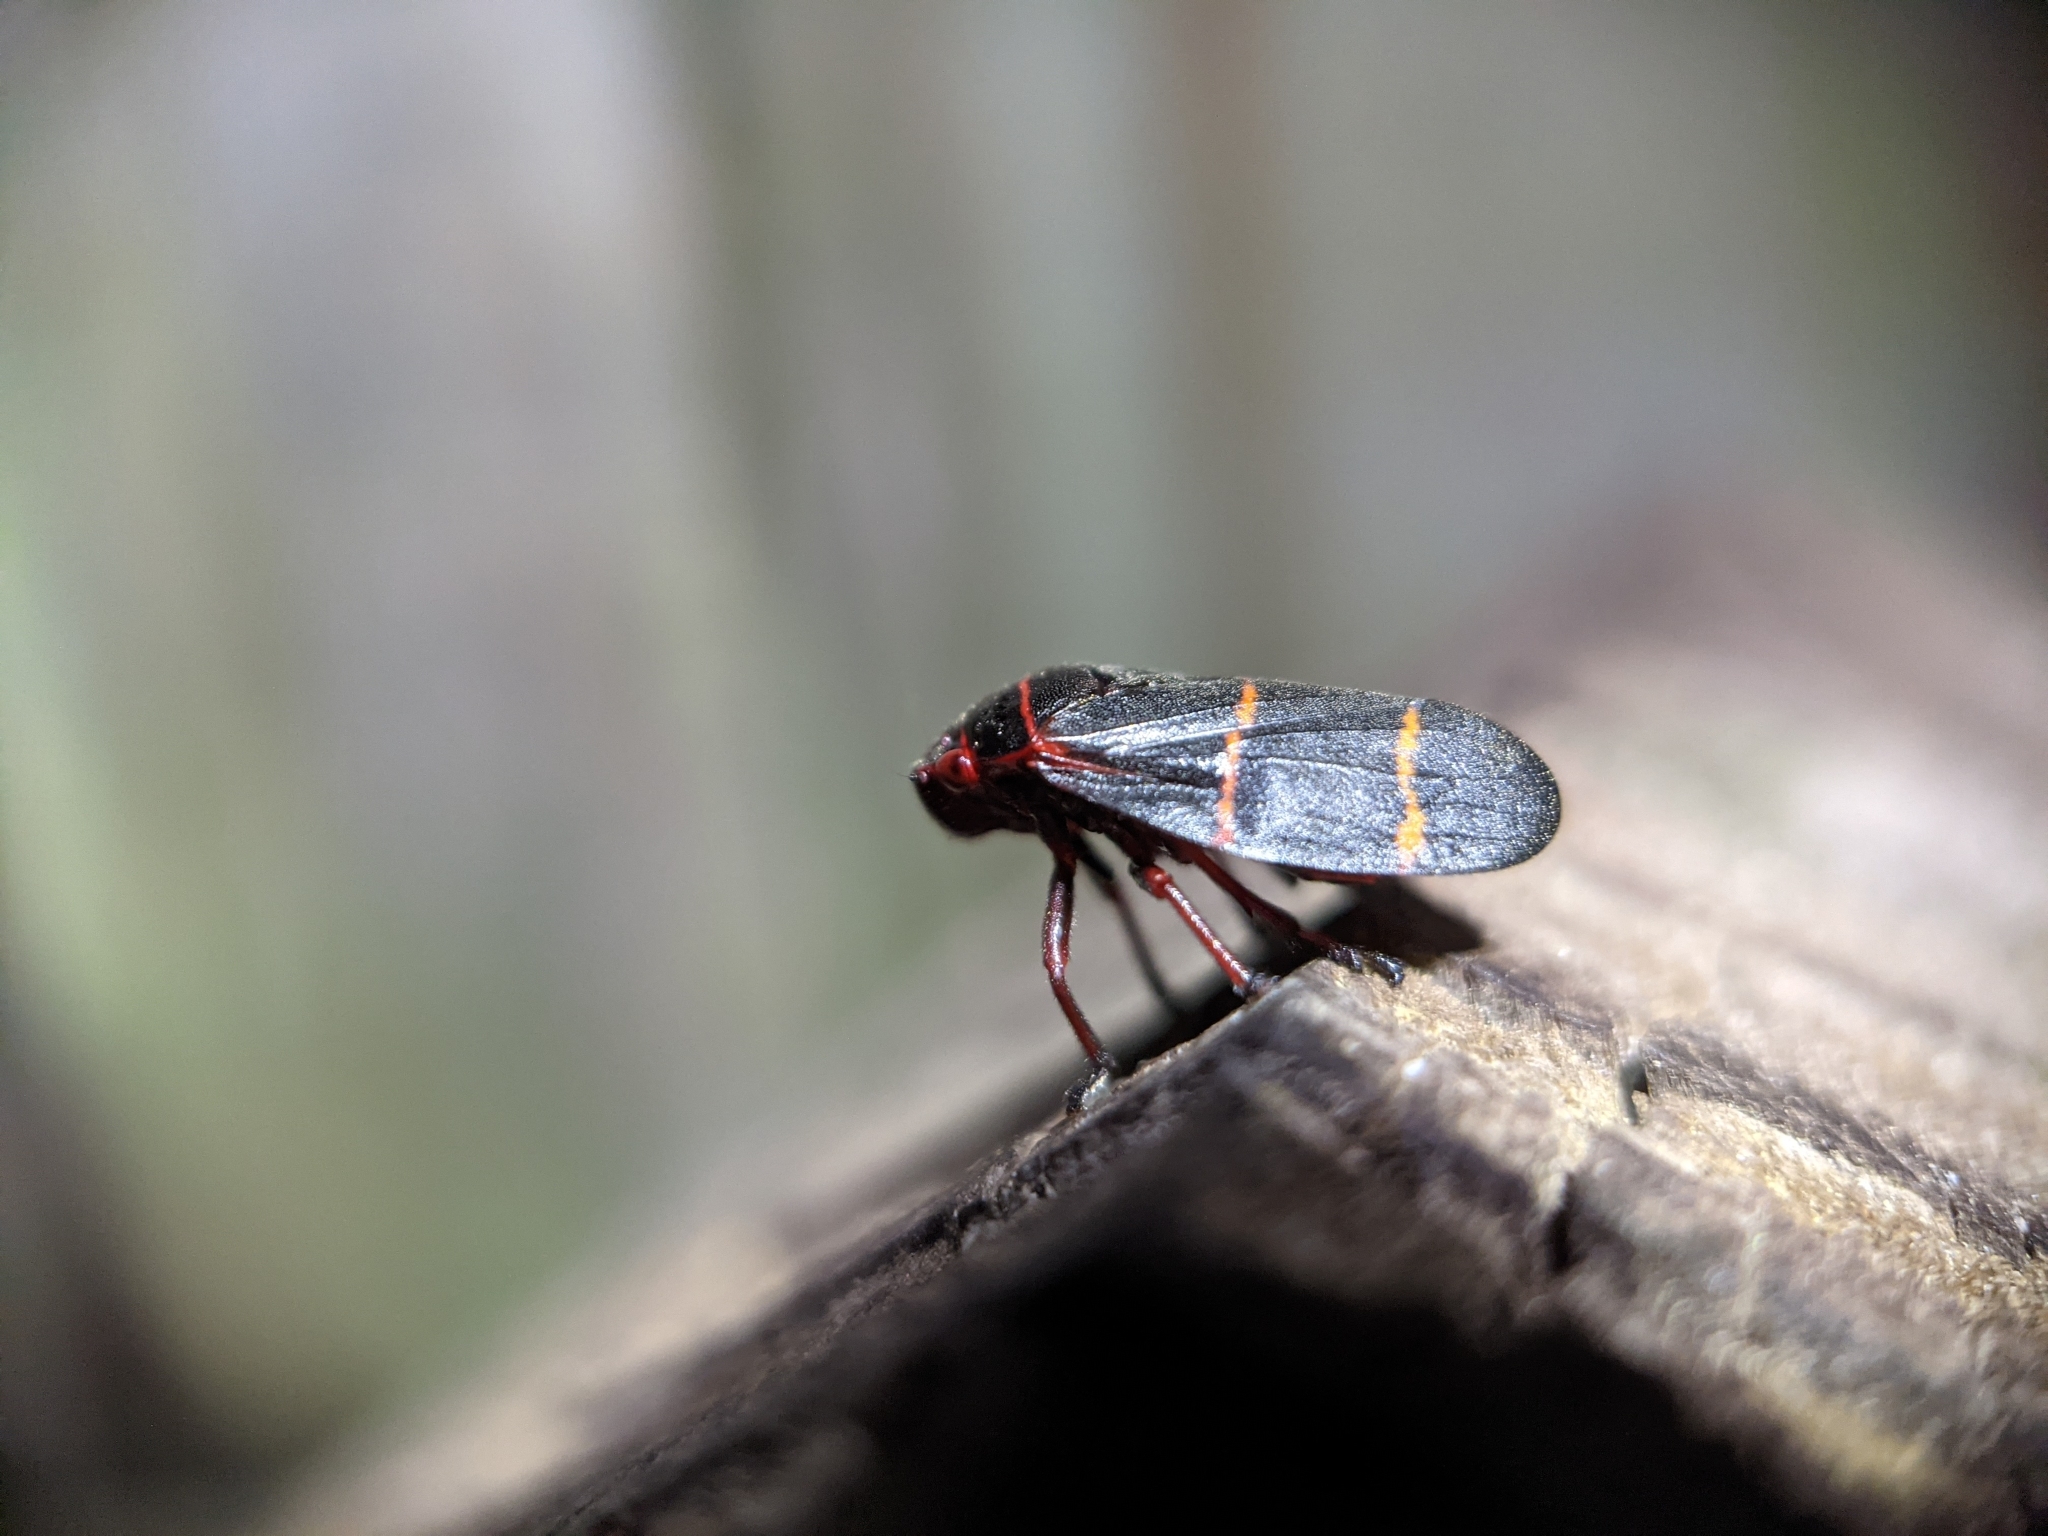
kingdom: Animalia
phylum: Arthropoda
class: Insecta
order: Hemiptera
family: Cercopidae
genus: Prosapia
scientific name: Prosapia bicincta
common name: Twolined spittlebug
